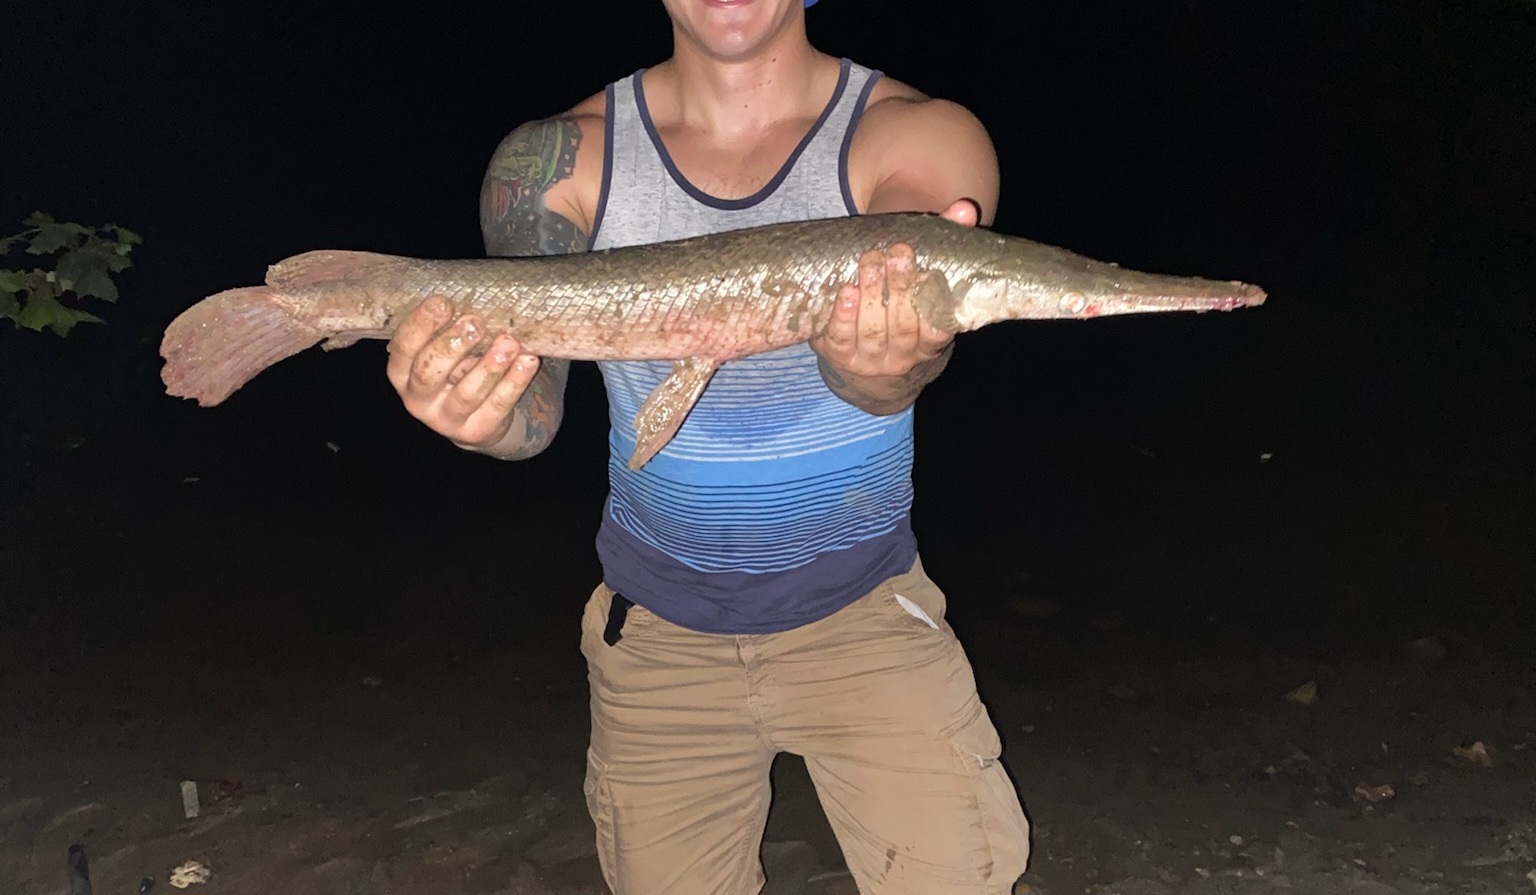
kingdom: Animalia
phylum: Chordata
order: Lepisosteiformes
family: Lepisosteidae
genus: Lepisosteus
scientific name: Lepisosteus platostomus
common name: Shortnose gar
